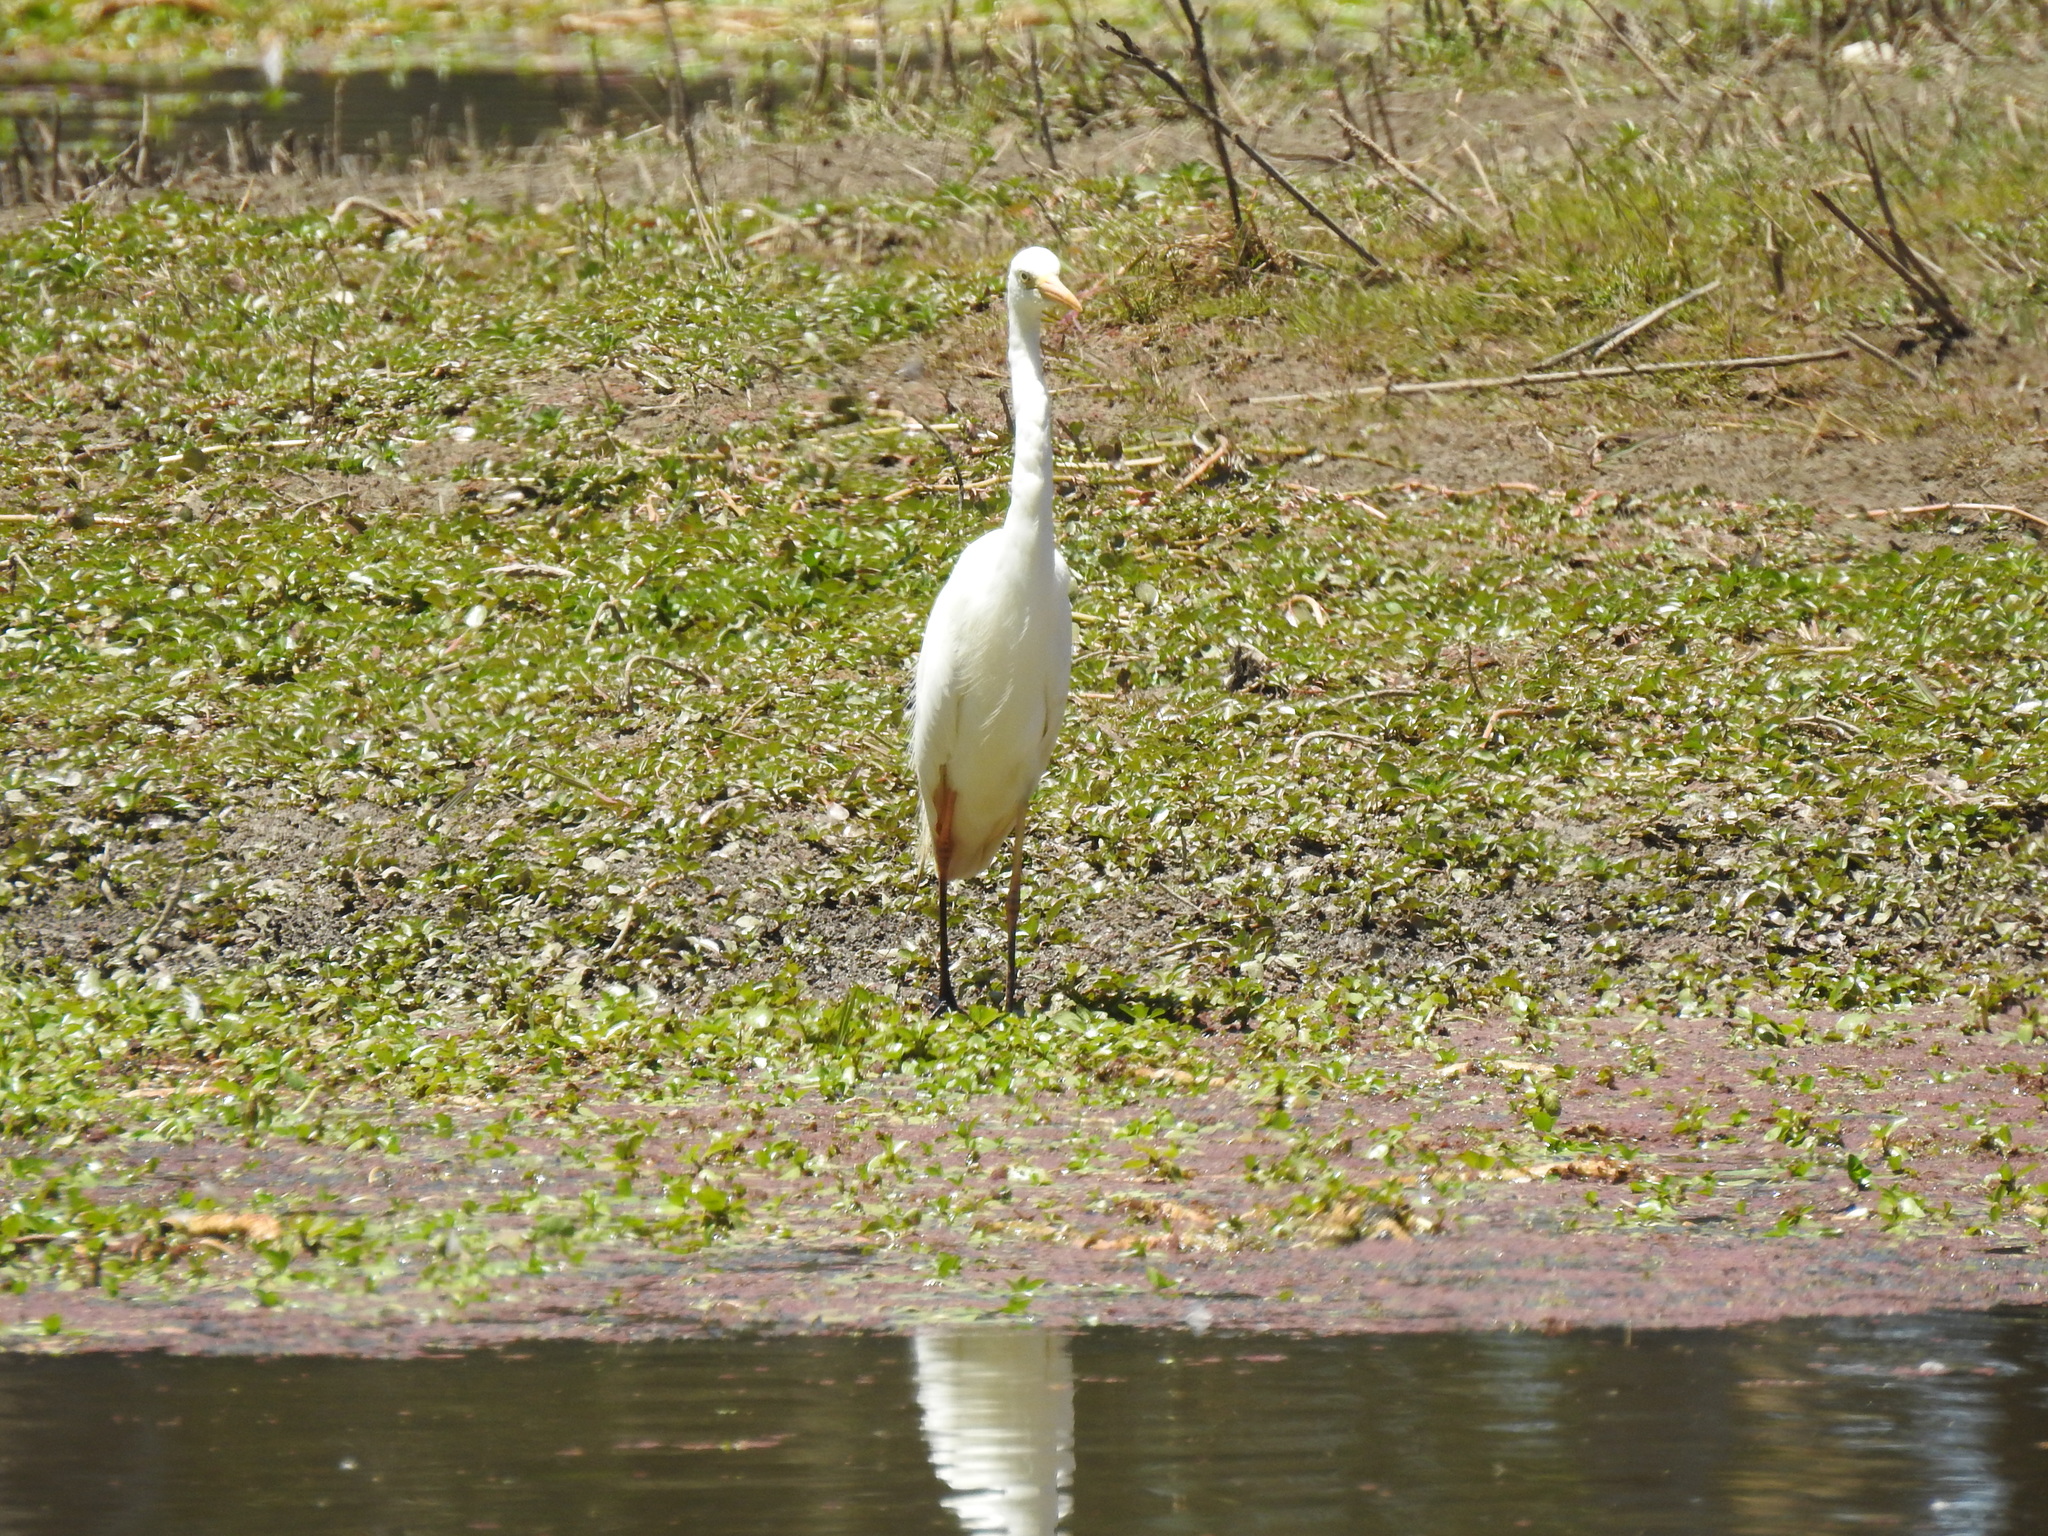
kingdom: Animalia
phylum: Chordata
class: Aves
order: Pelecaniformes
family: Ardeidae
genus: Egretta
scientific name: Egretta intermedia
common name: Intermediate egret
